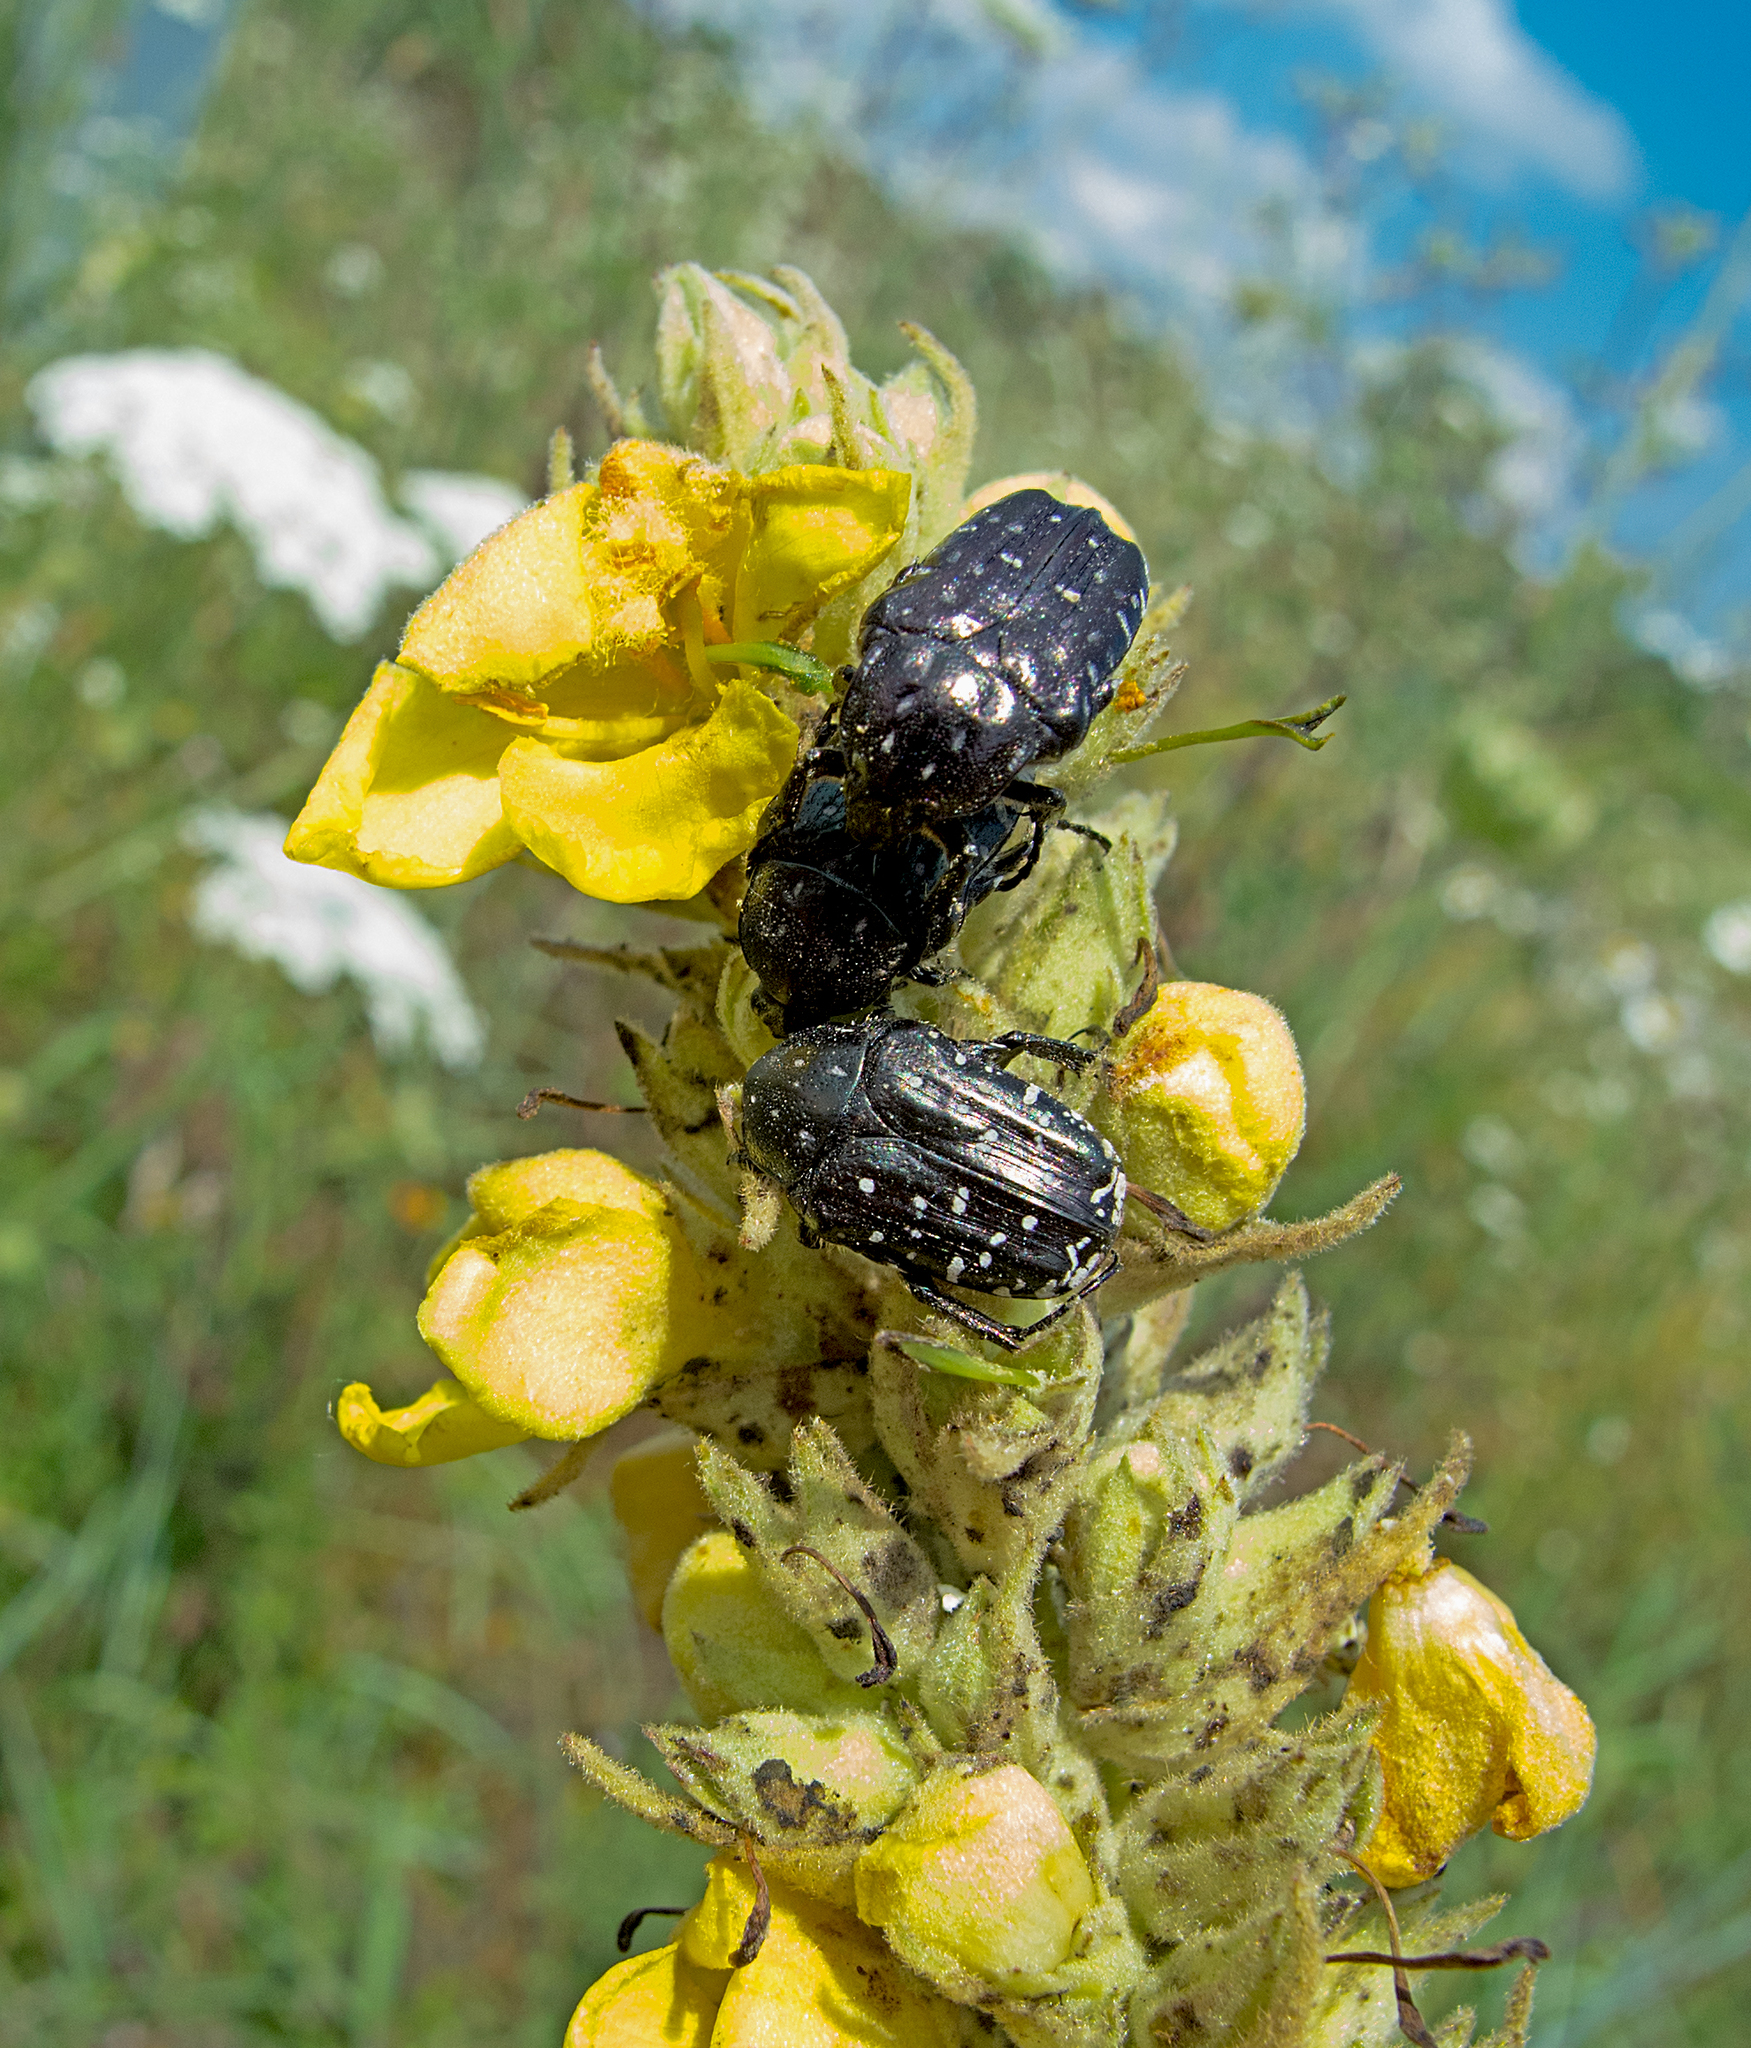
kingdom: Animalia
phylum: Arthropoda
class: Insecta
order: Coleoptera
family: Scarabaeidae
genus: Oxythyrea
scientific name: Oxythyrea funesta
